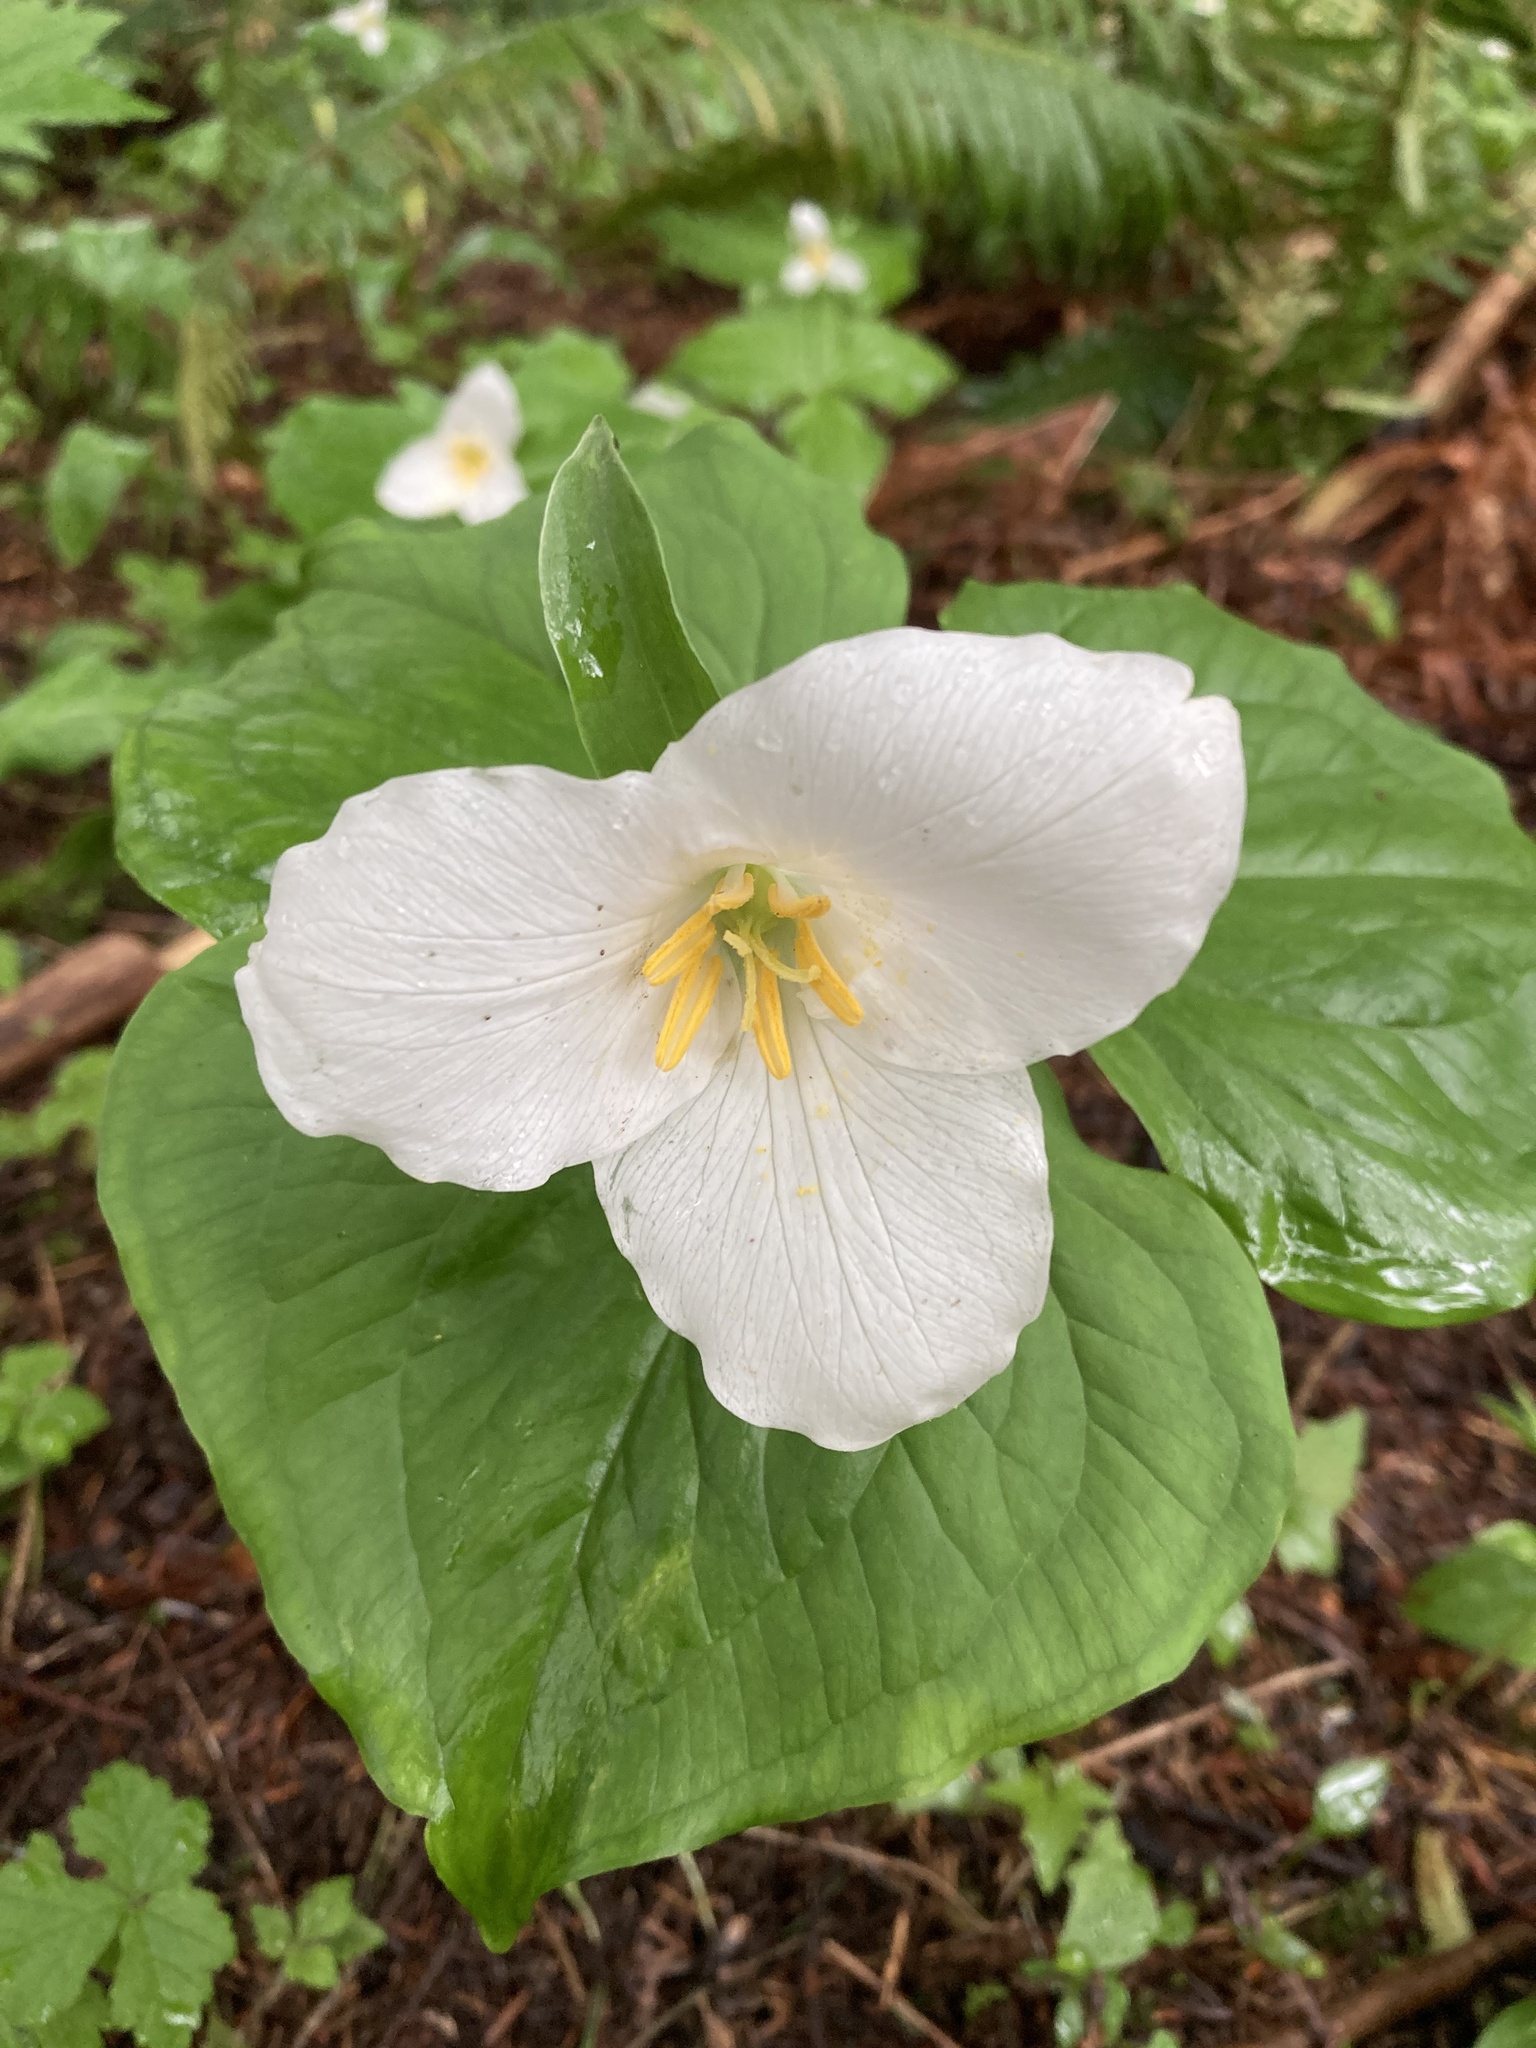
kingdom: Plantae
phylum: Tracheophyta
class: Liliopsida
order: Liliales
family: Melanthiaceae
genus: Trillium
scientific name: Trillium ovatum
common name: Pacific trillium
